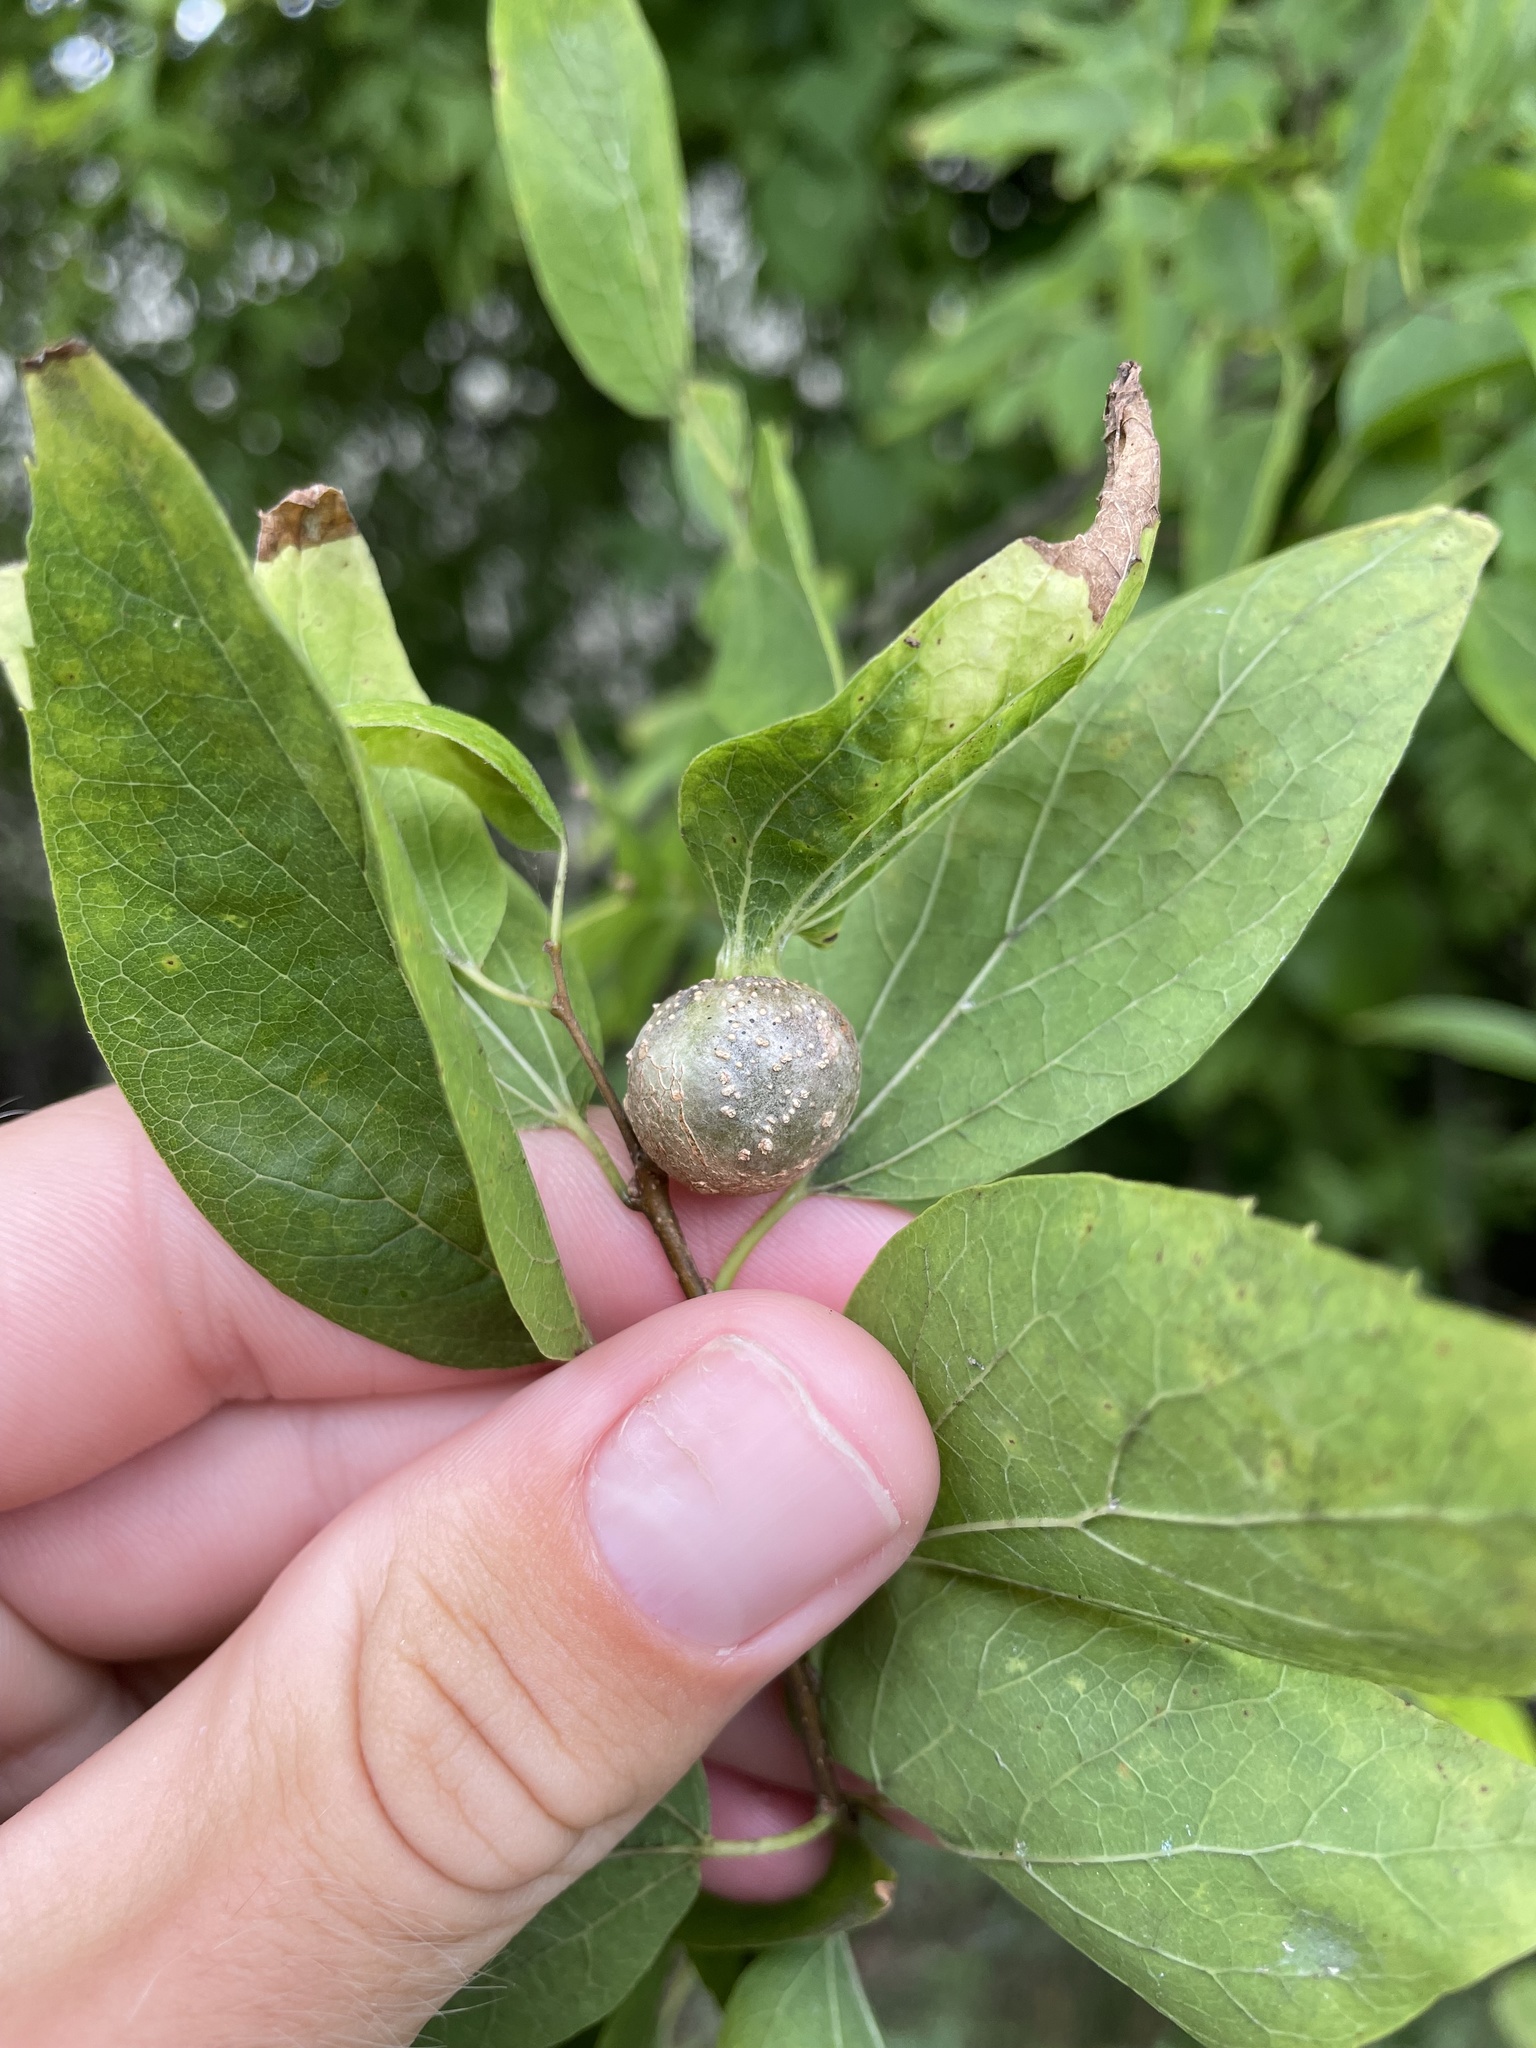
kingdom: Animalia
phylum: Arthropoda
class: Insecta
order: Hemiptera
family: Aphalaridae
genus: Pachypsylla
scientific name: Pachypsylla venusta
